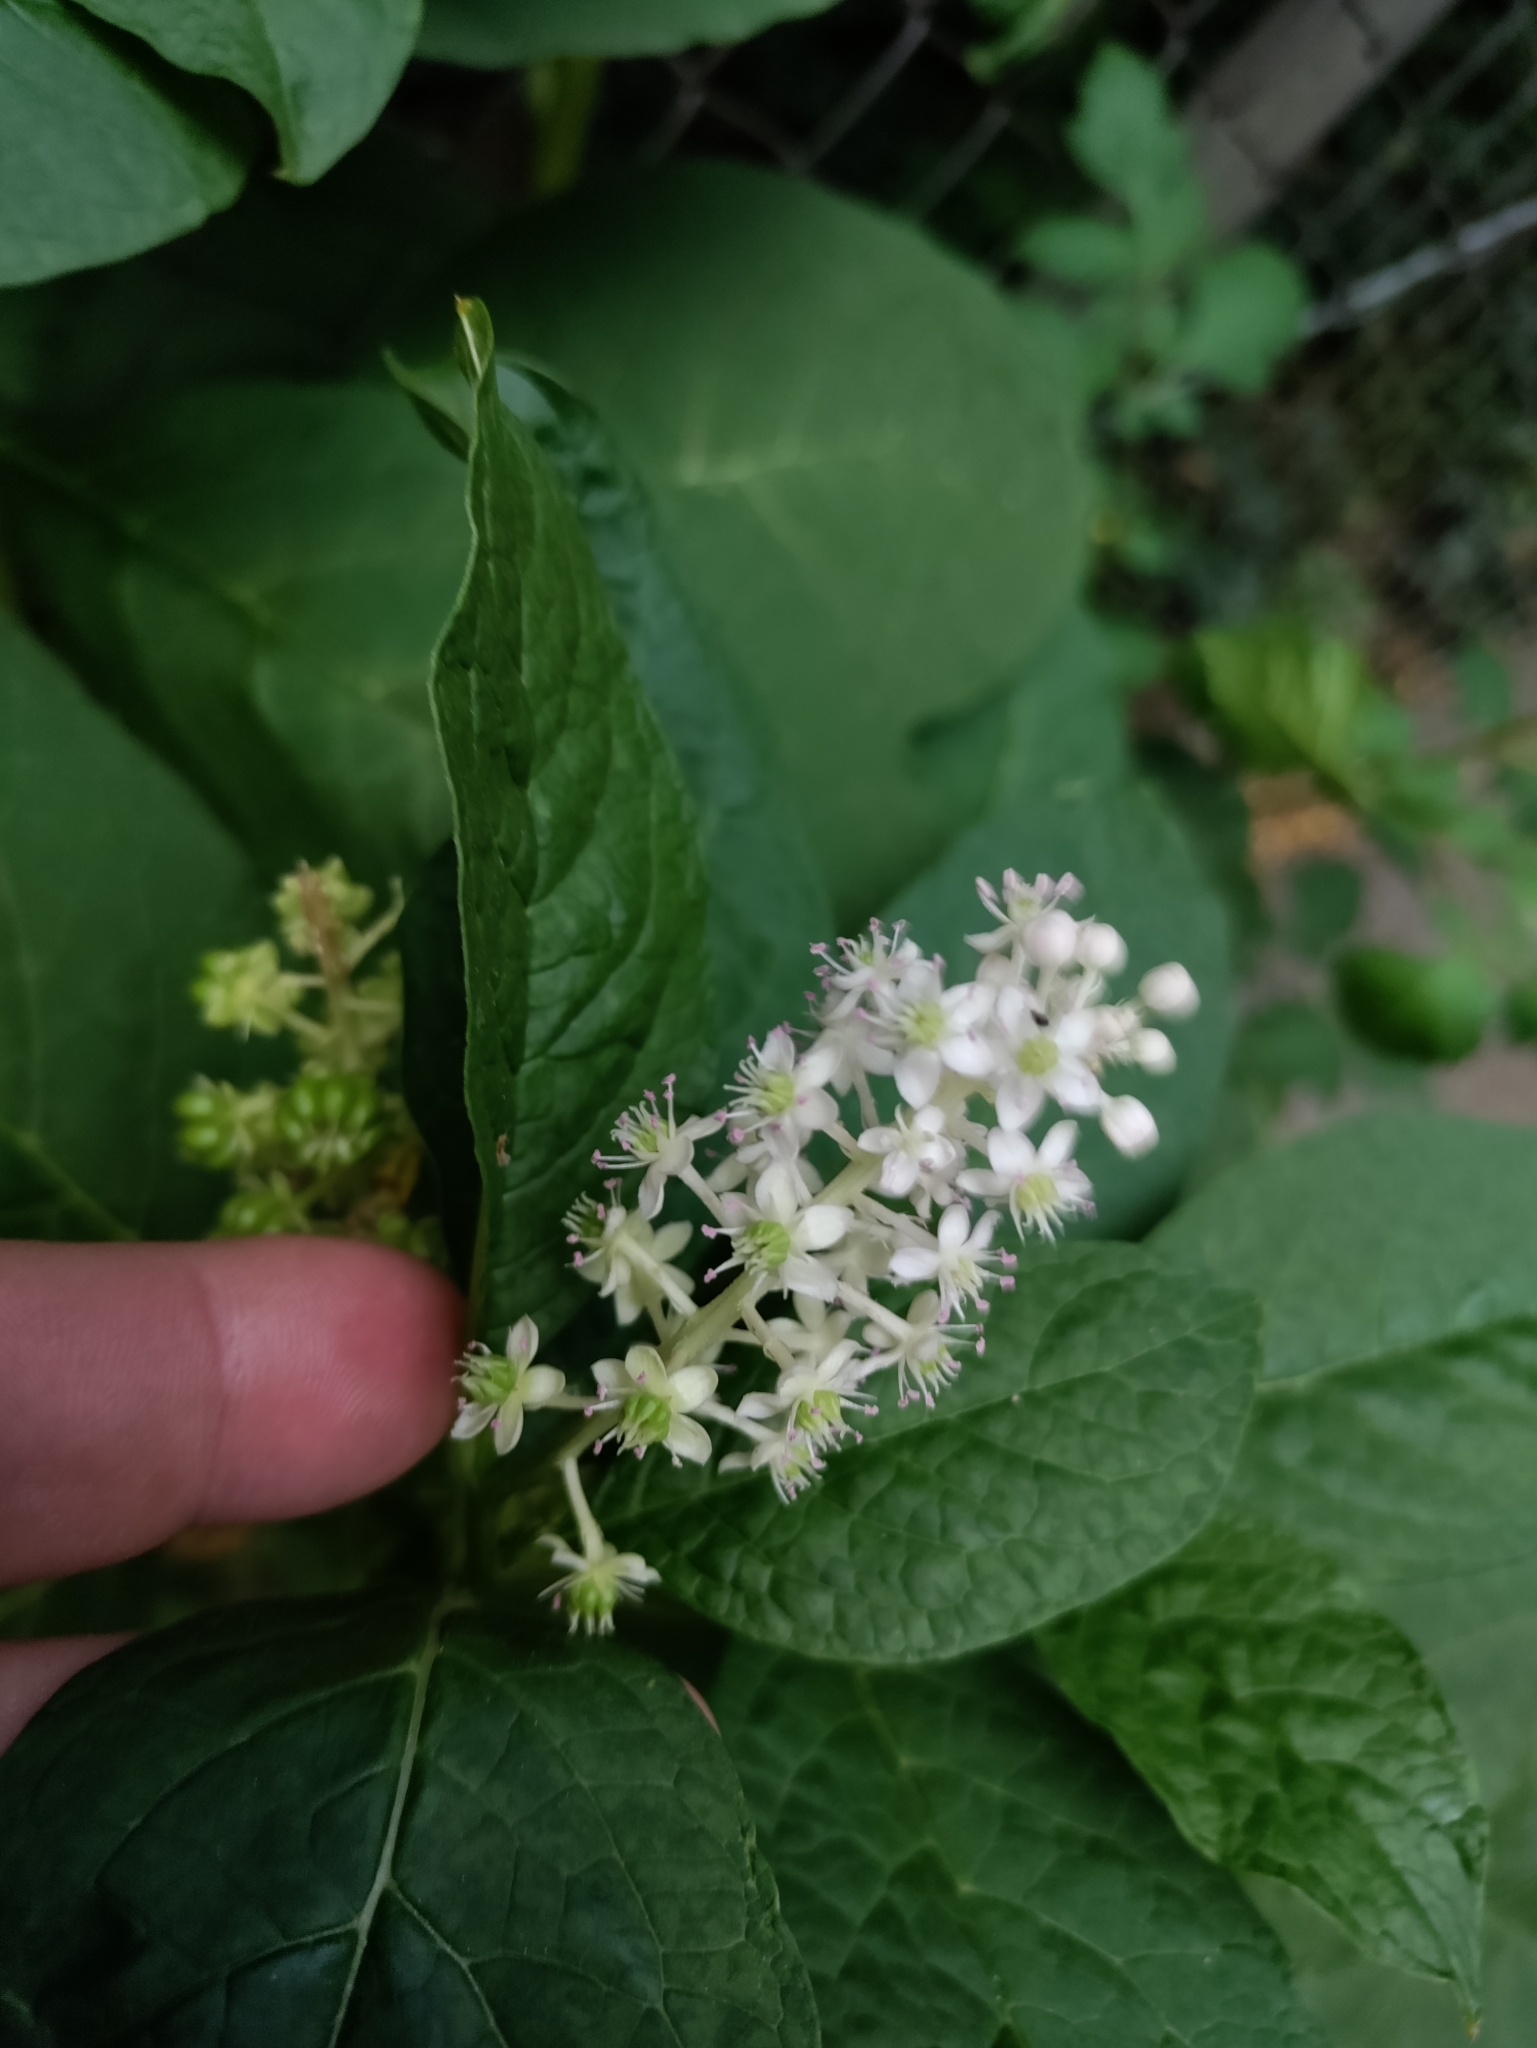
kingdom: Plantae
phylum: Tracheophyta
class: Magnoliopsida
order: Caryophyllales
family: Phytolaccaceae
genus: Phytolacca
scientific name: Phytolacca acinosa
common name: Indian pokeweed
